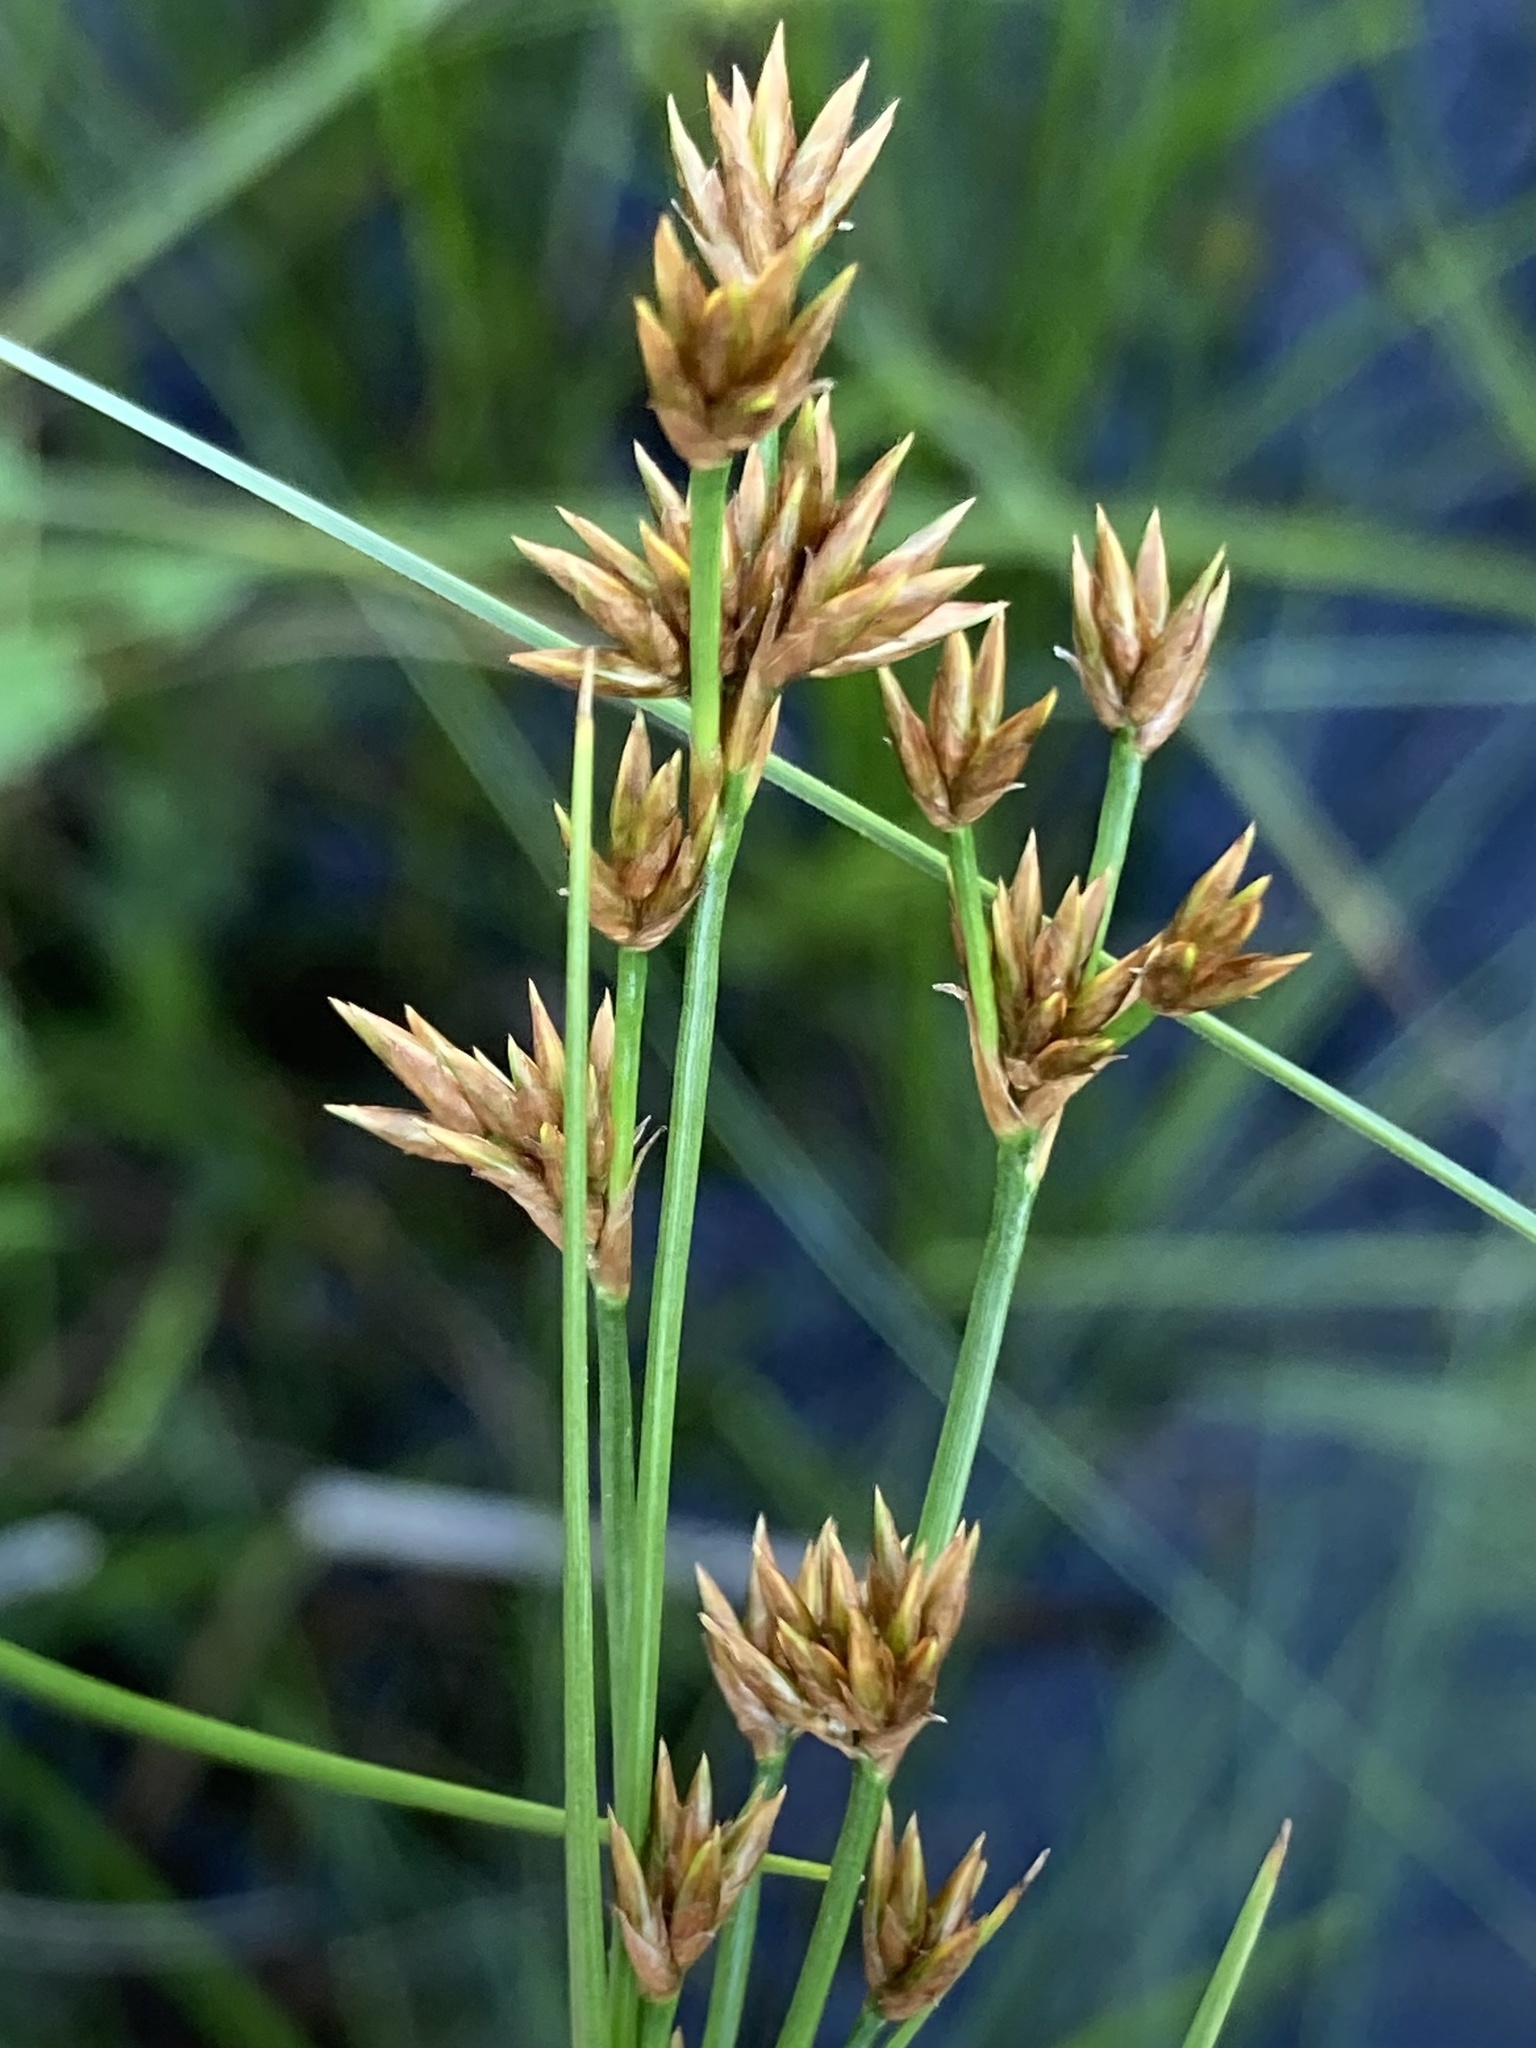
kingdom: Plantae
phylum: Tracheophyta
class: Liliopsida
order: Poales
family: Cyperaceae
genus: Cladium
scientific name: Cladium mariscoides
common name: Smooth sawgrass
